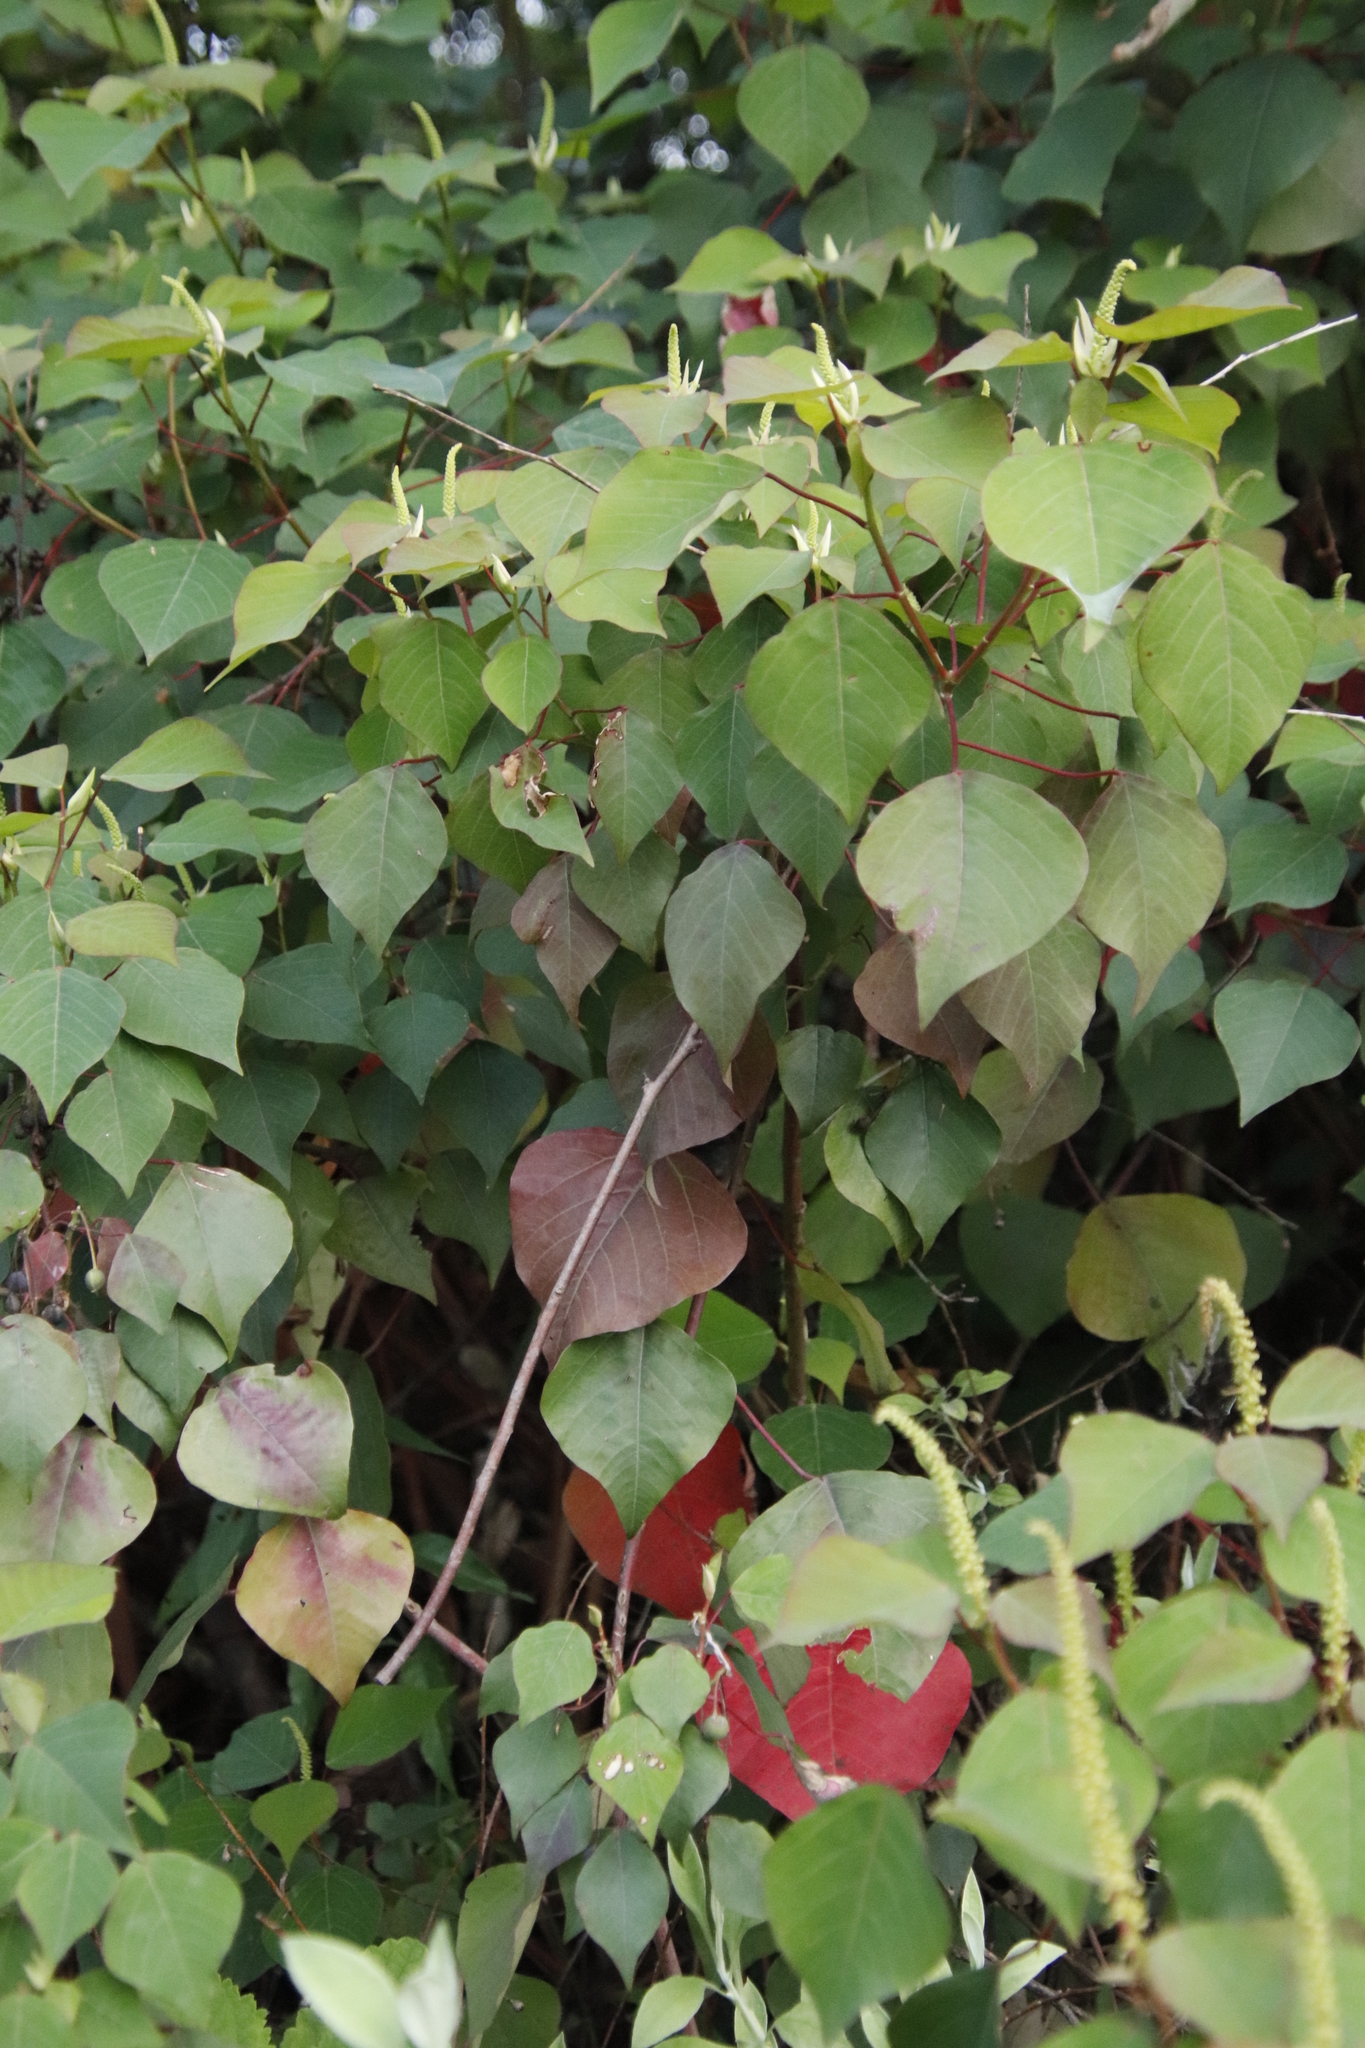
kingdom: Plantae
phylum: Tracheophyta
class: Magnoliopsida
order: Malpighiales
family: Euphorbiaceae
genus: Homalanthus
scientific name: Homalanthus populifolius
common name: Queensland poplar
